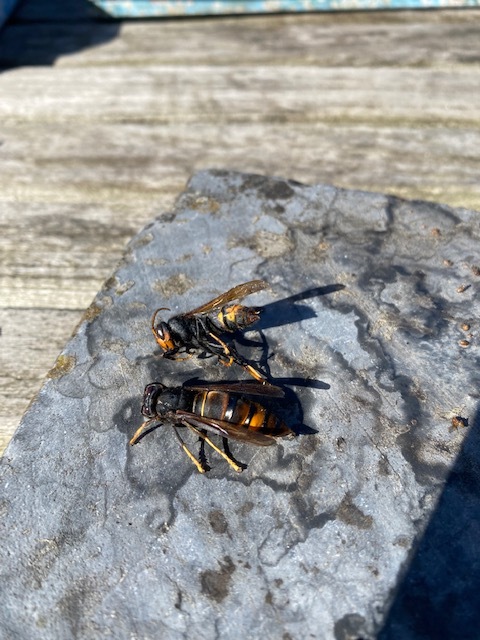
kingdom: Animalia
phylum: Arthropoda
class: Insecta
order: Hymenoptera
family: Vespidae
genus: Vespa
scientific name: Vespa velutina
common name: Asian hornet
